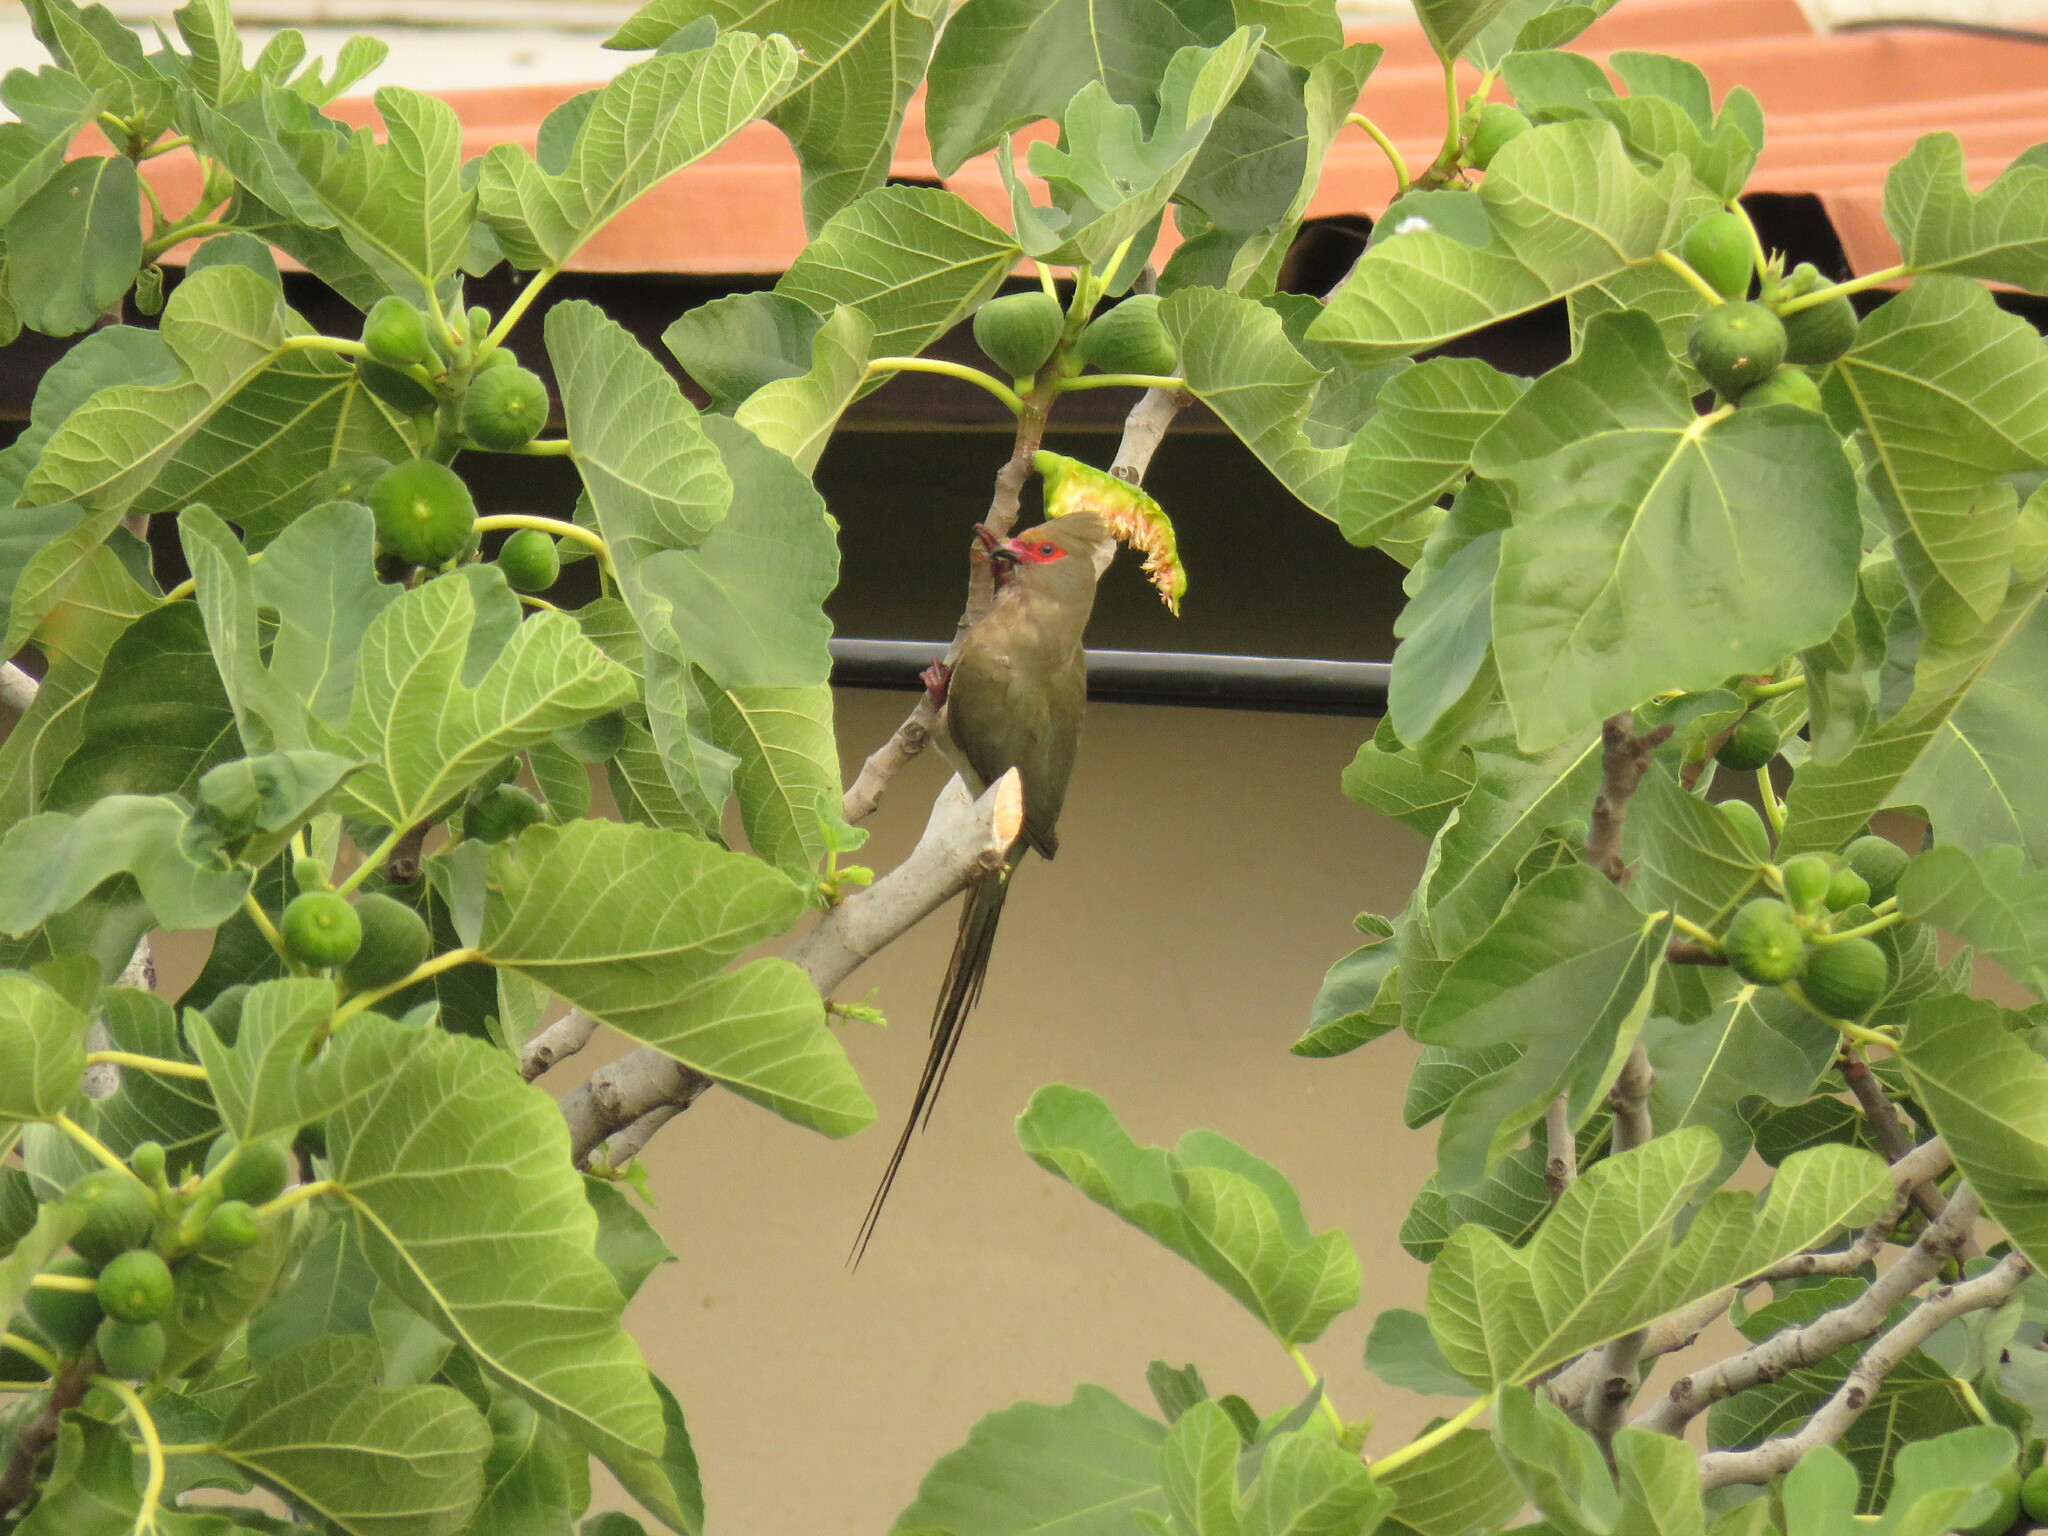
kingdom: Animalia
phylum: Chordata
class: Aves
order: Coliiformes
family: Coliidae
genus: Urocolius
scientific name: Urocolius indicus
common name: Red-faced mousebird
